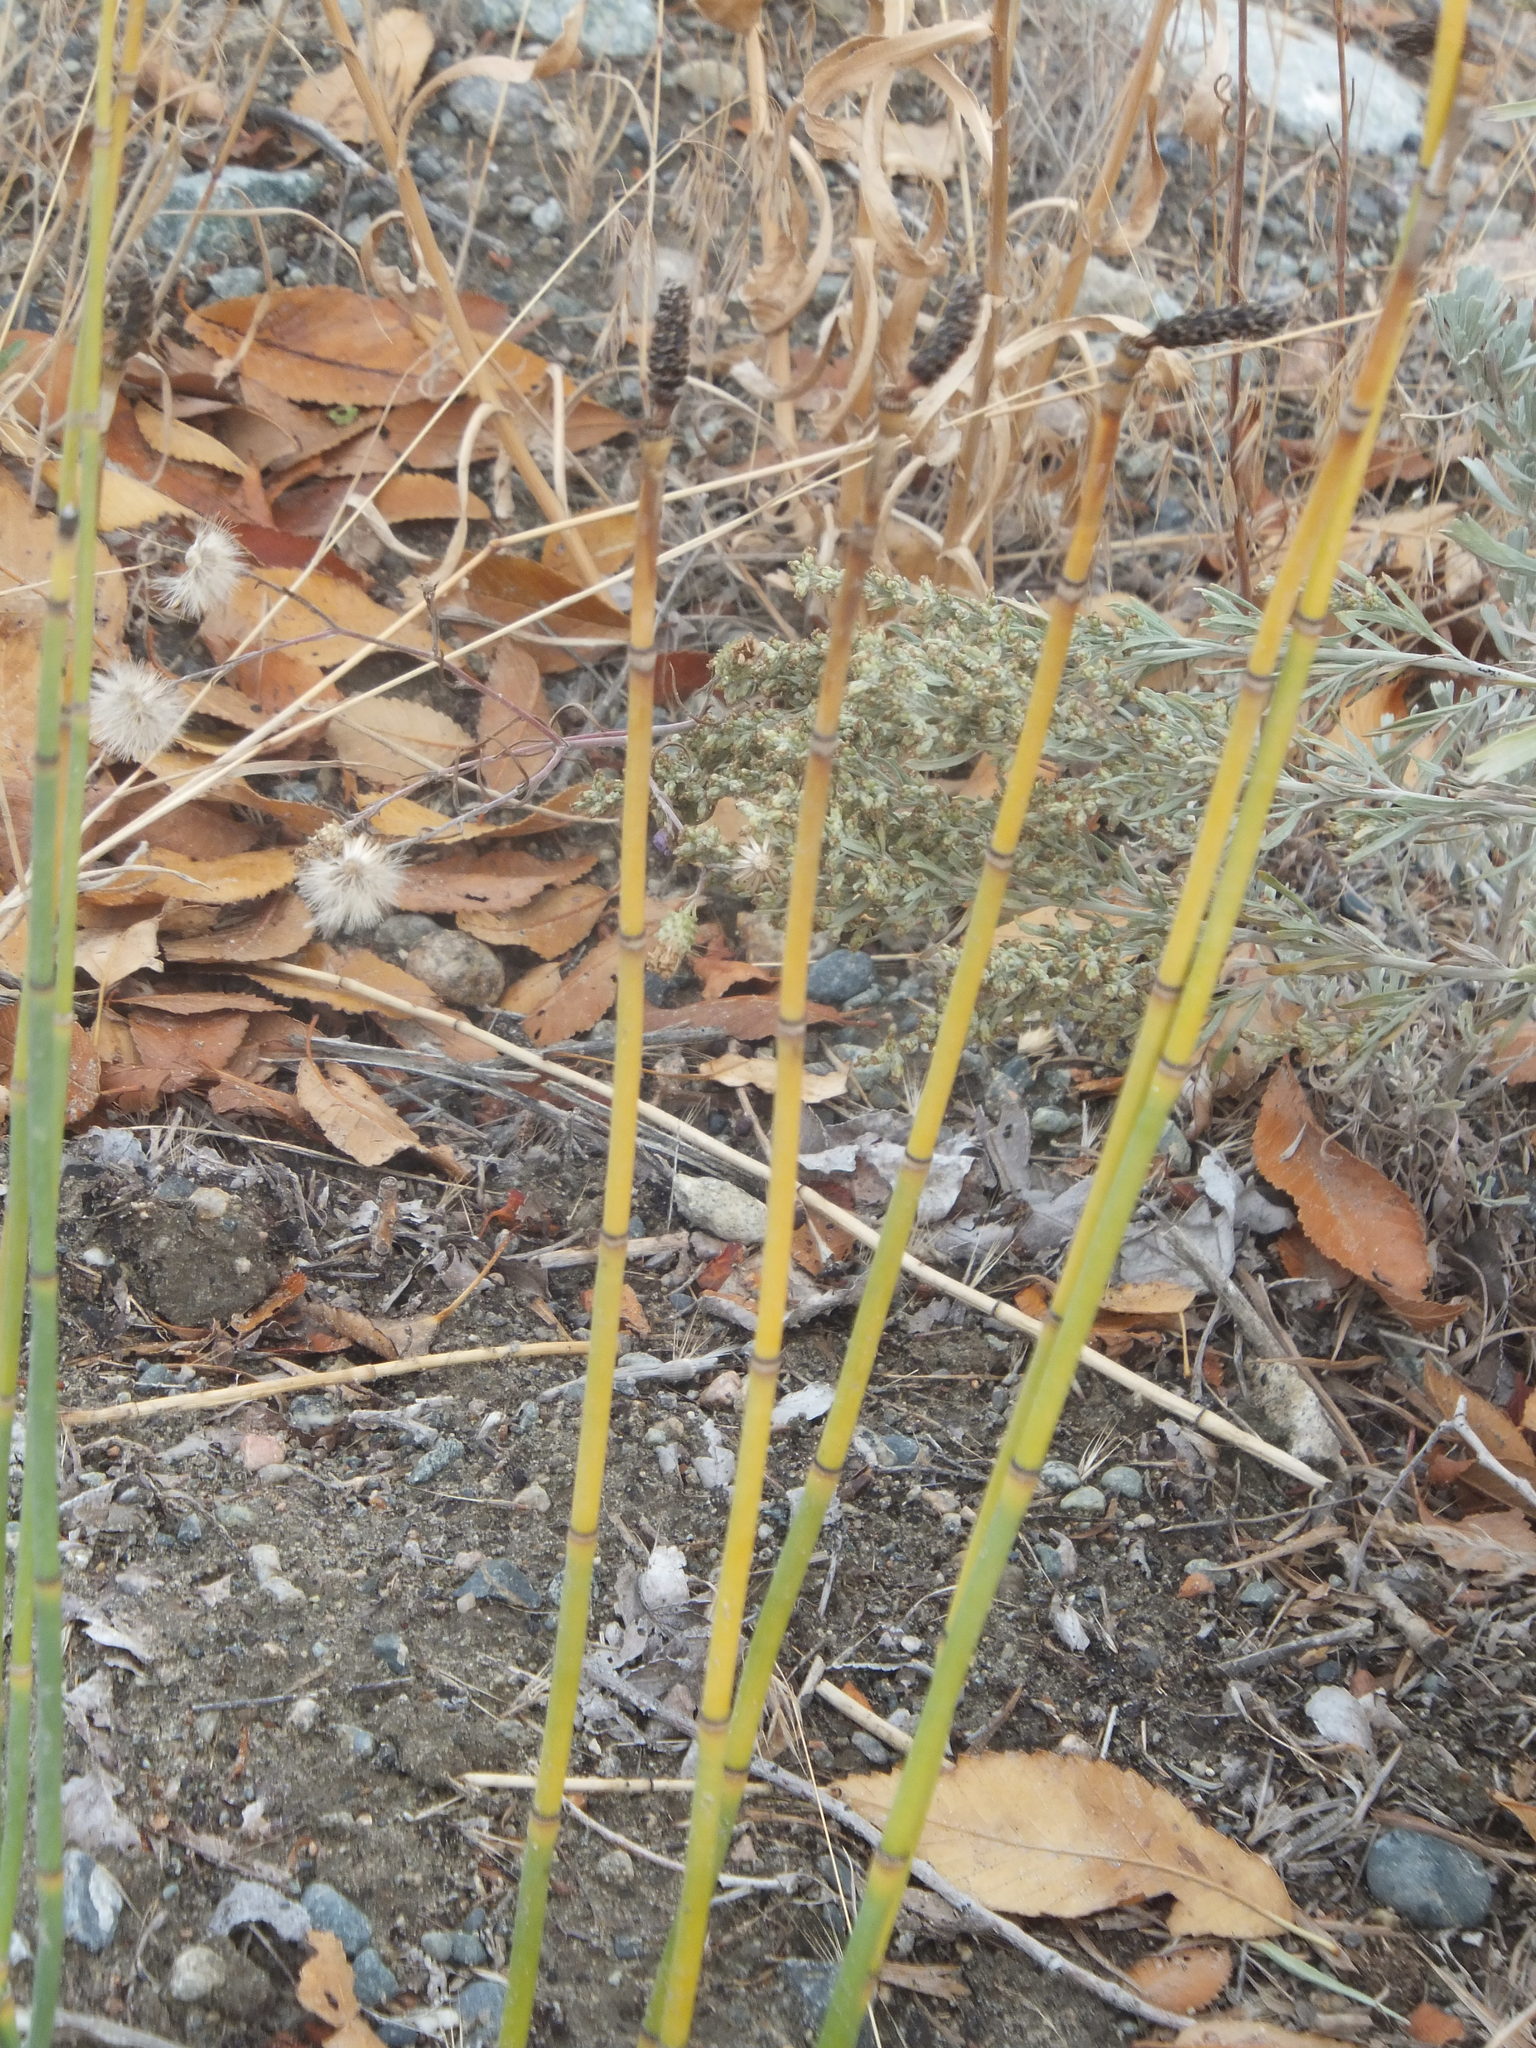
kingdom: Plantae
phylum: Tracheophyta
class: Polypodiopsida
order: Equisetales
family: Equisetaceae
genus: Equisetum
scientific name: Equisetum laevigatum
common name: Smooth scouring-rush
